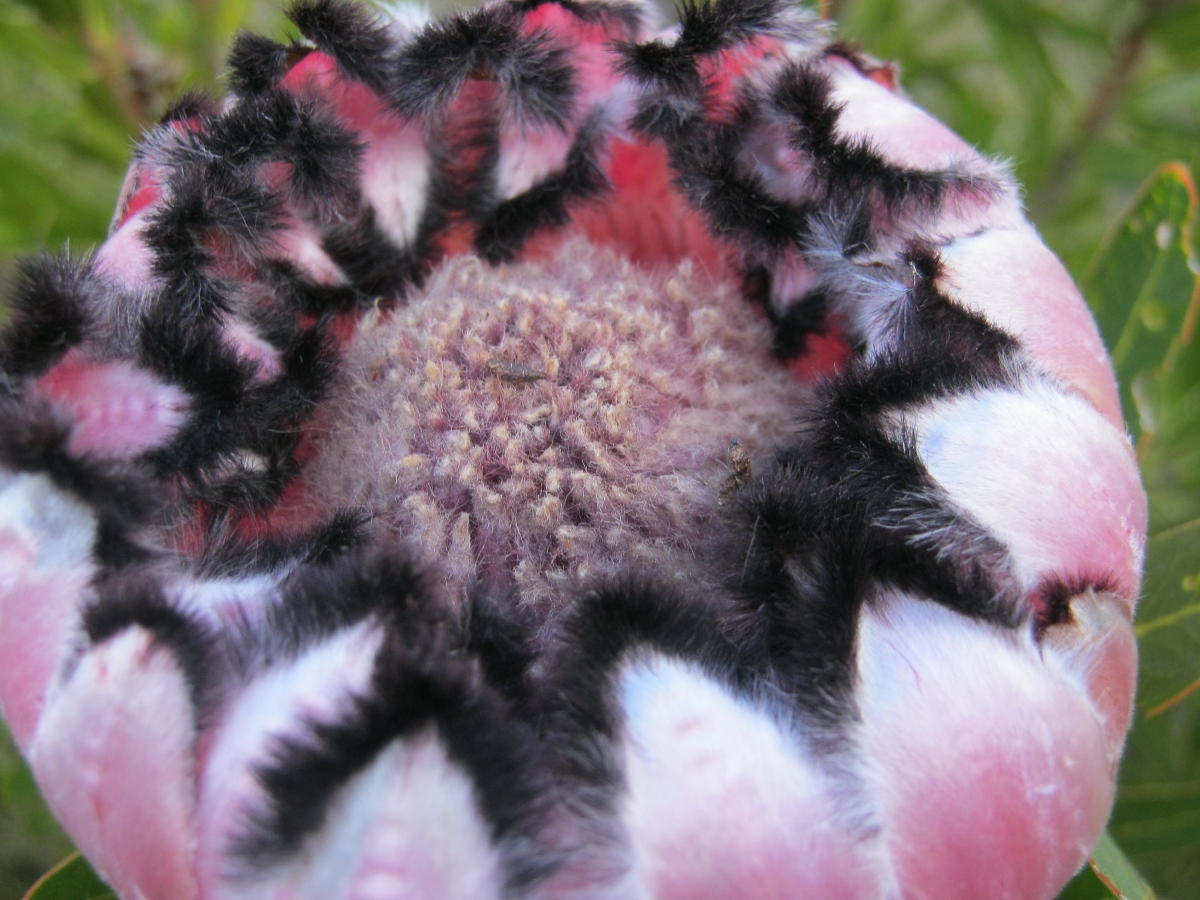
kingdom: Plantae
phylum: Tracheophyta
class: Magnoliopsida
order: Proteales
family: Proteaceae
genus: Protea
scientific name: Protea neriifolia
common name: Blue sugarbush
